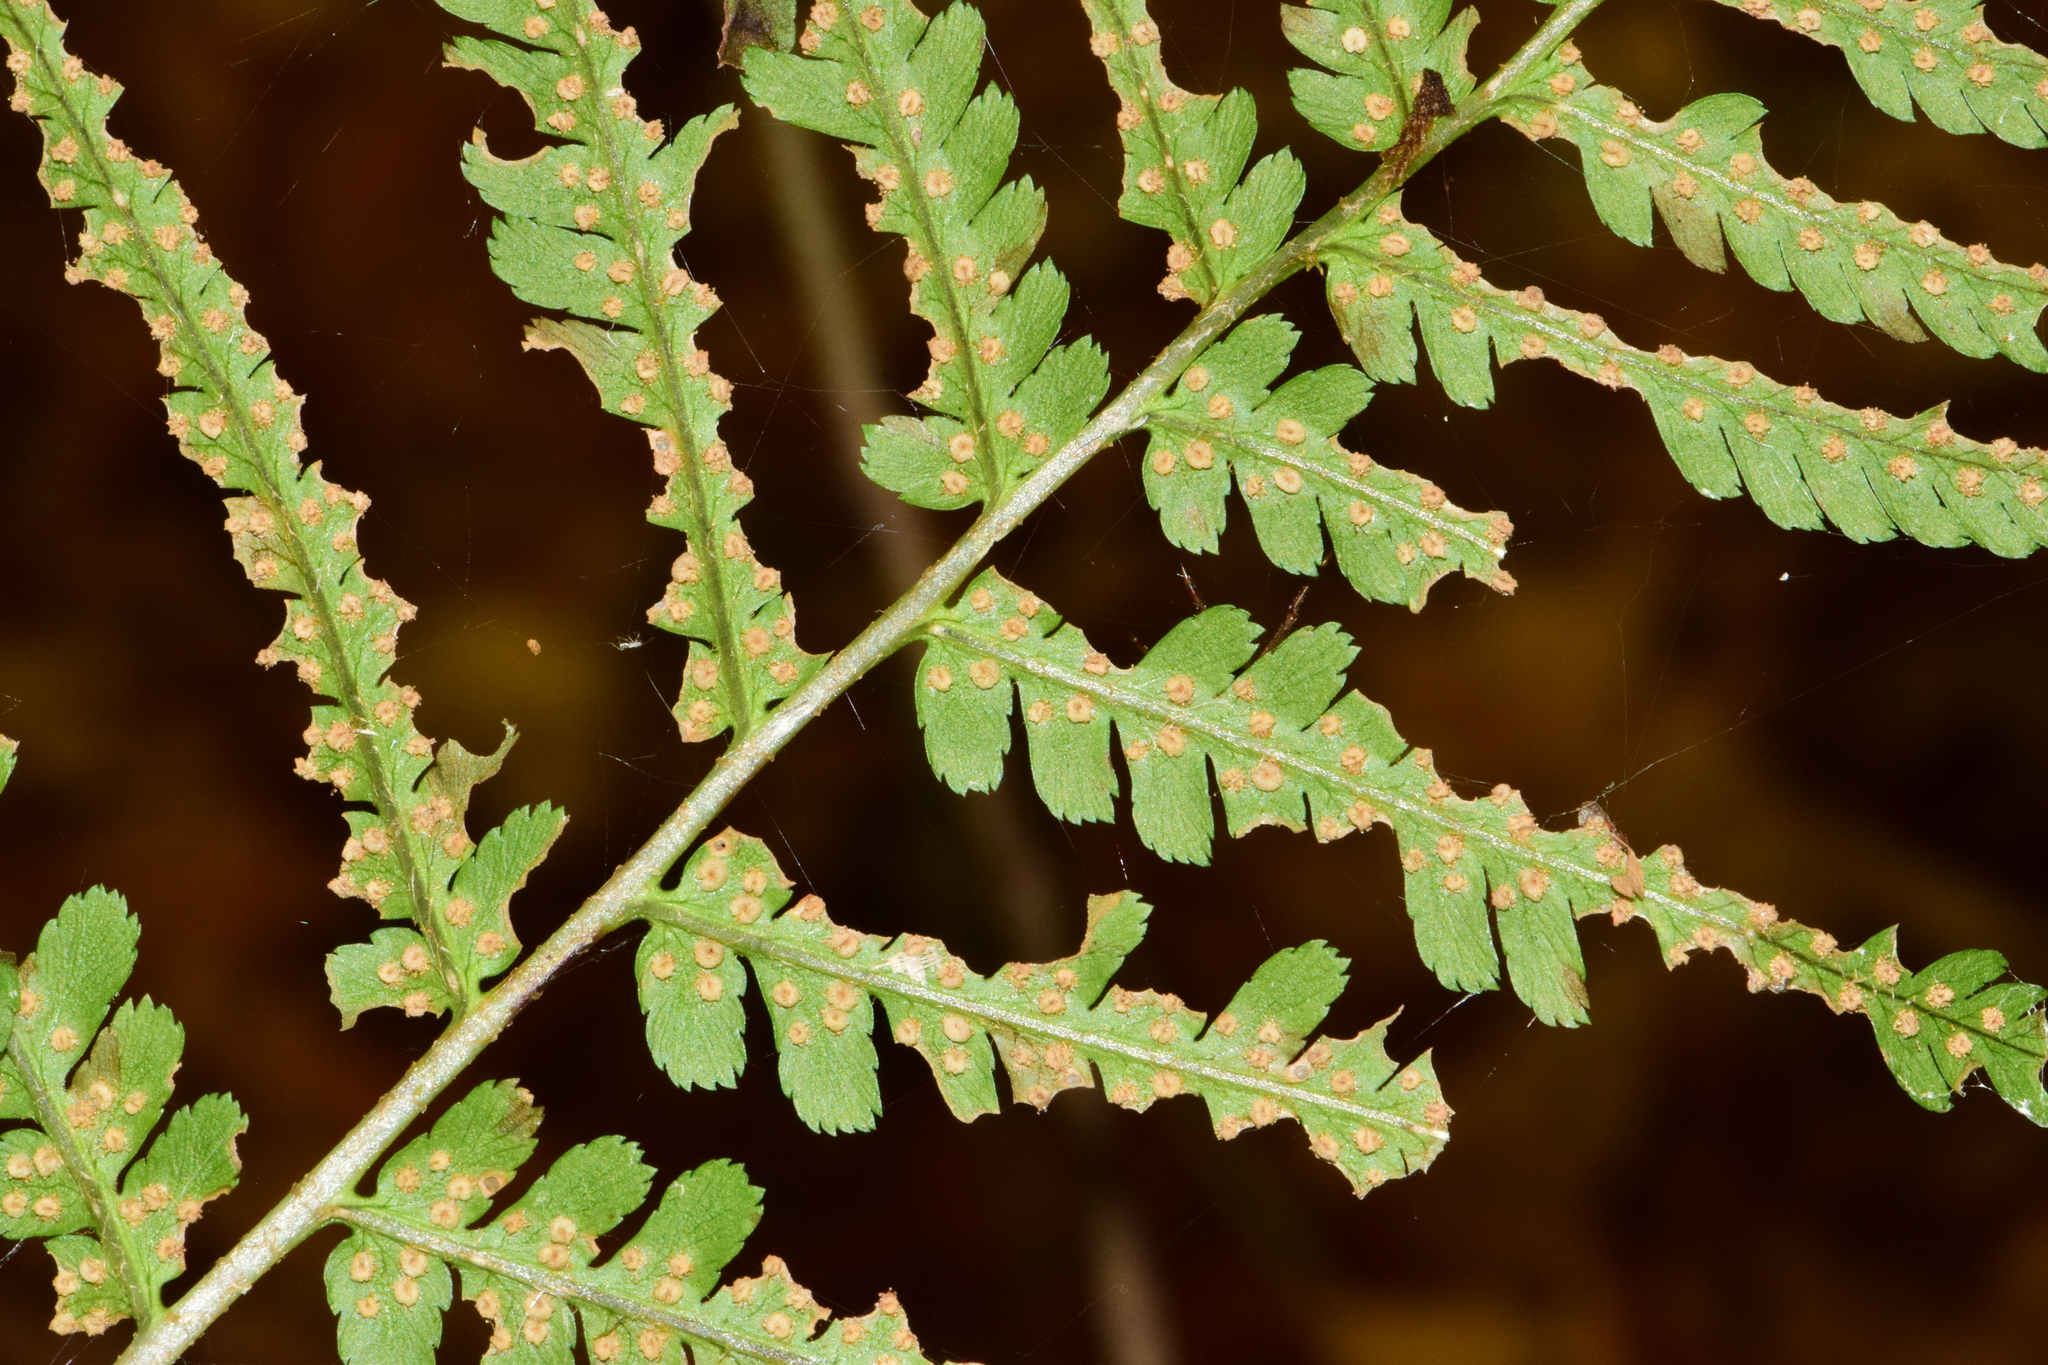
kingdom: Plantae
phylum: Tracheophyta
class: Polypodiopsida
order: Polypodiales
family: Dryopteridaceae
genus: Dryopteris
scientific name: Dryopteris filix-mas
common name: Male fern
